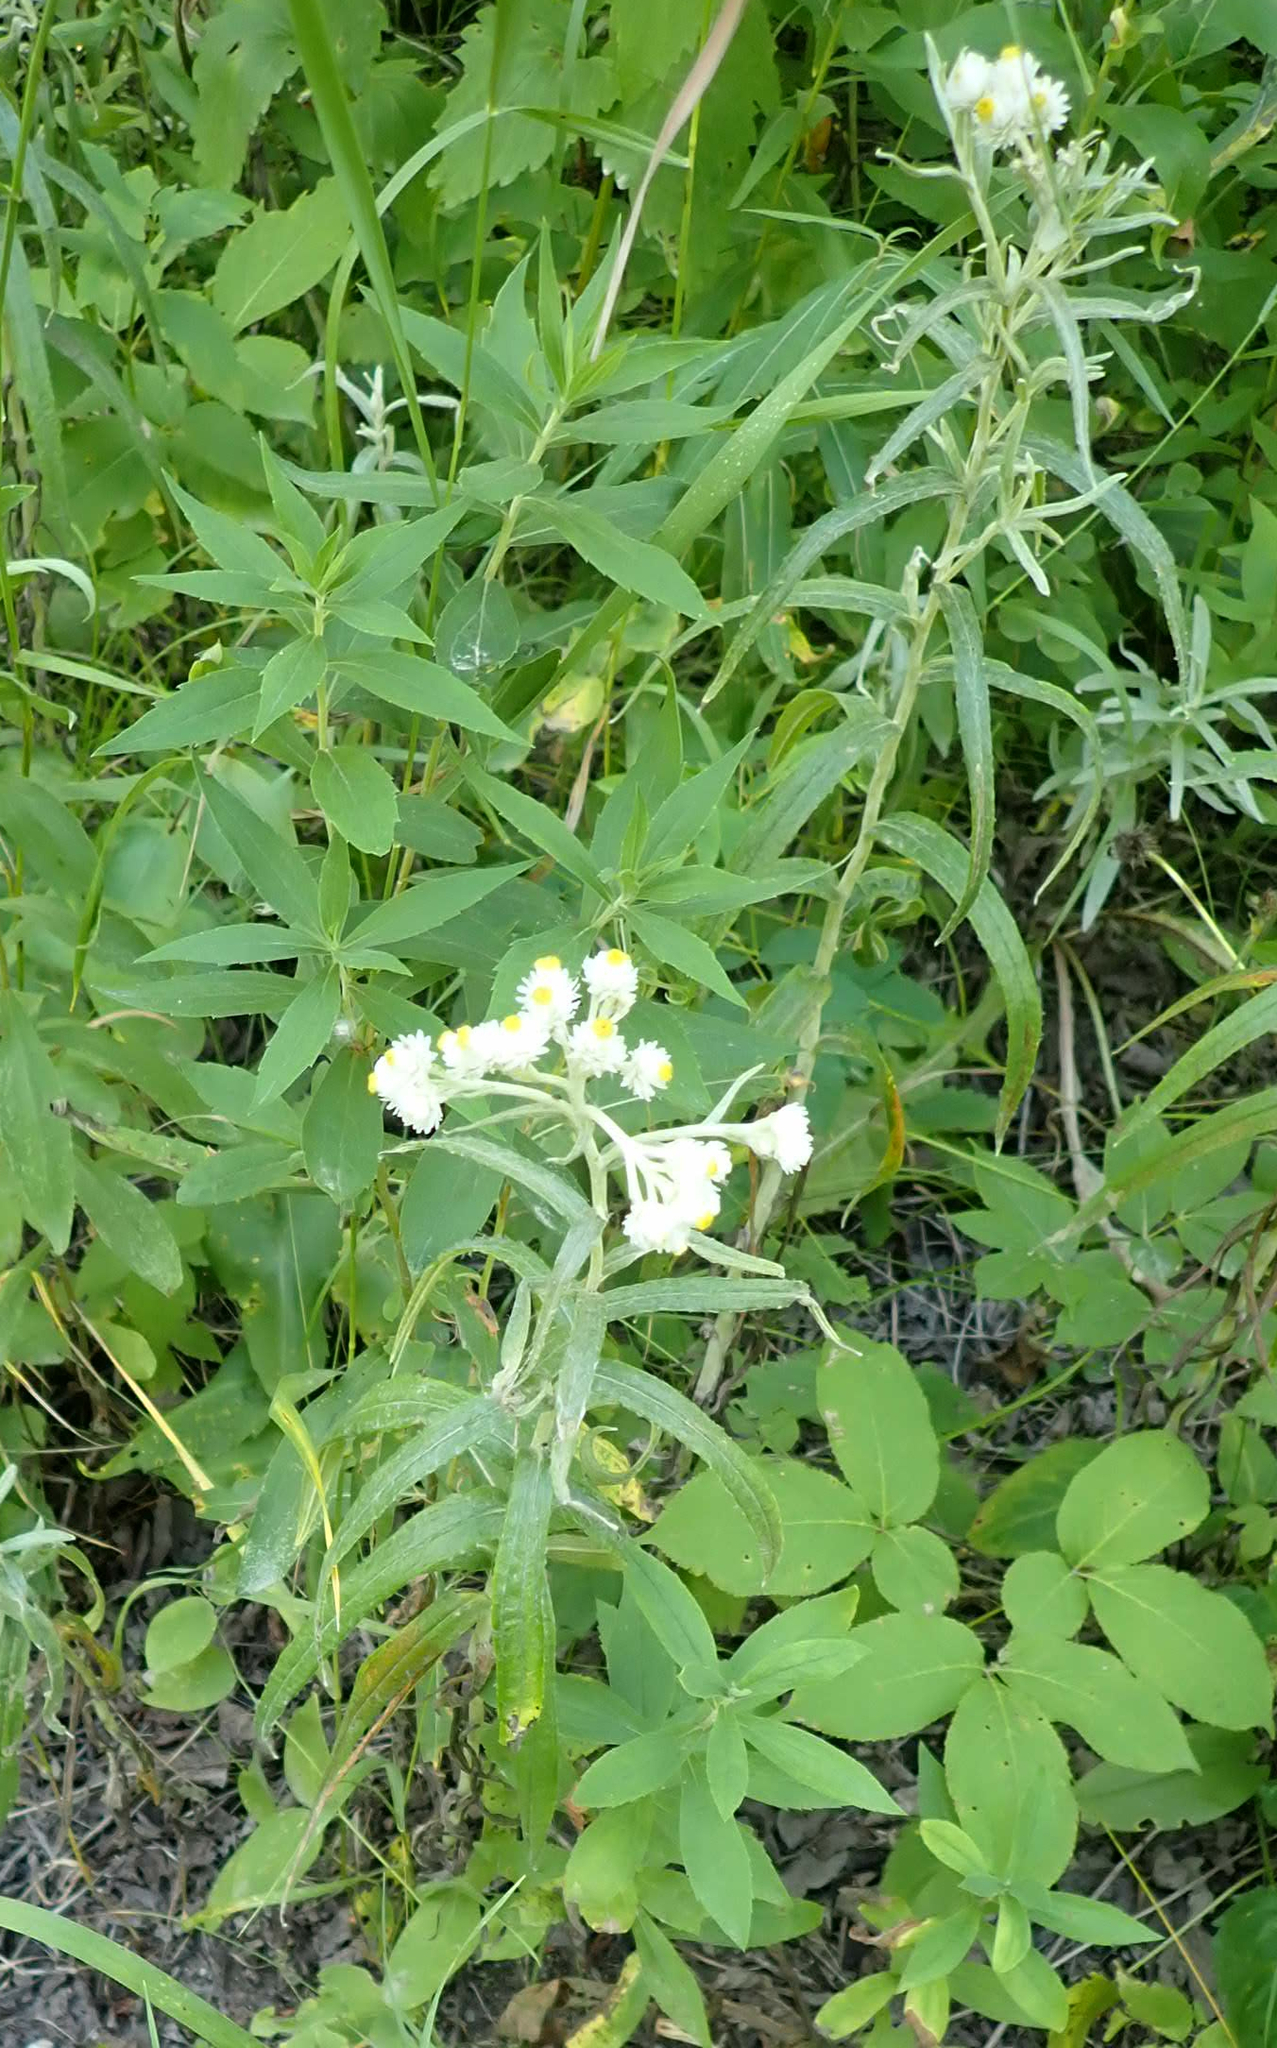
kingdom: Plantae
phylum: Tracheophyta
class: Magnoliopsida
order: Asterales
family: Asteraceae
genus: Anaphalis
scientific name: Anaphalis margaritacea
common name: Pearly everlasting
